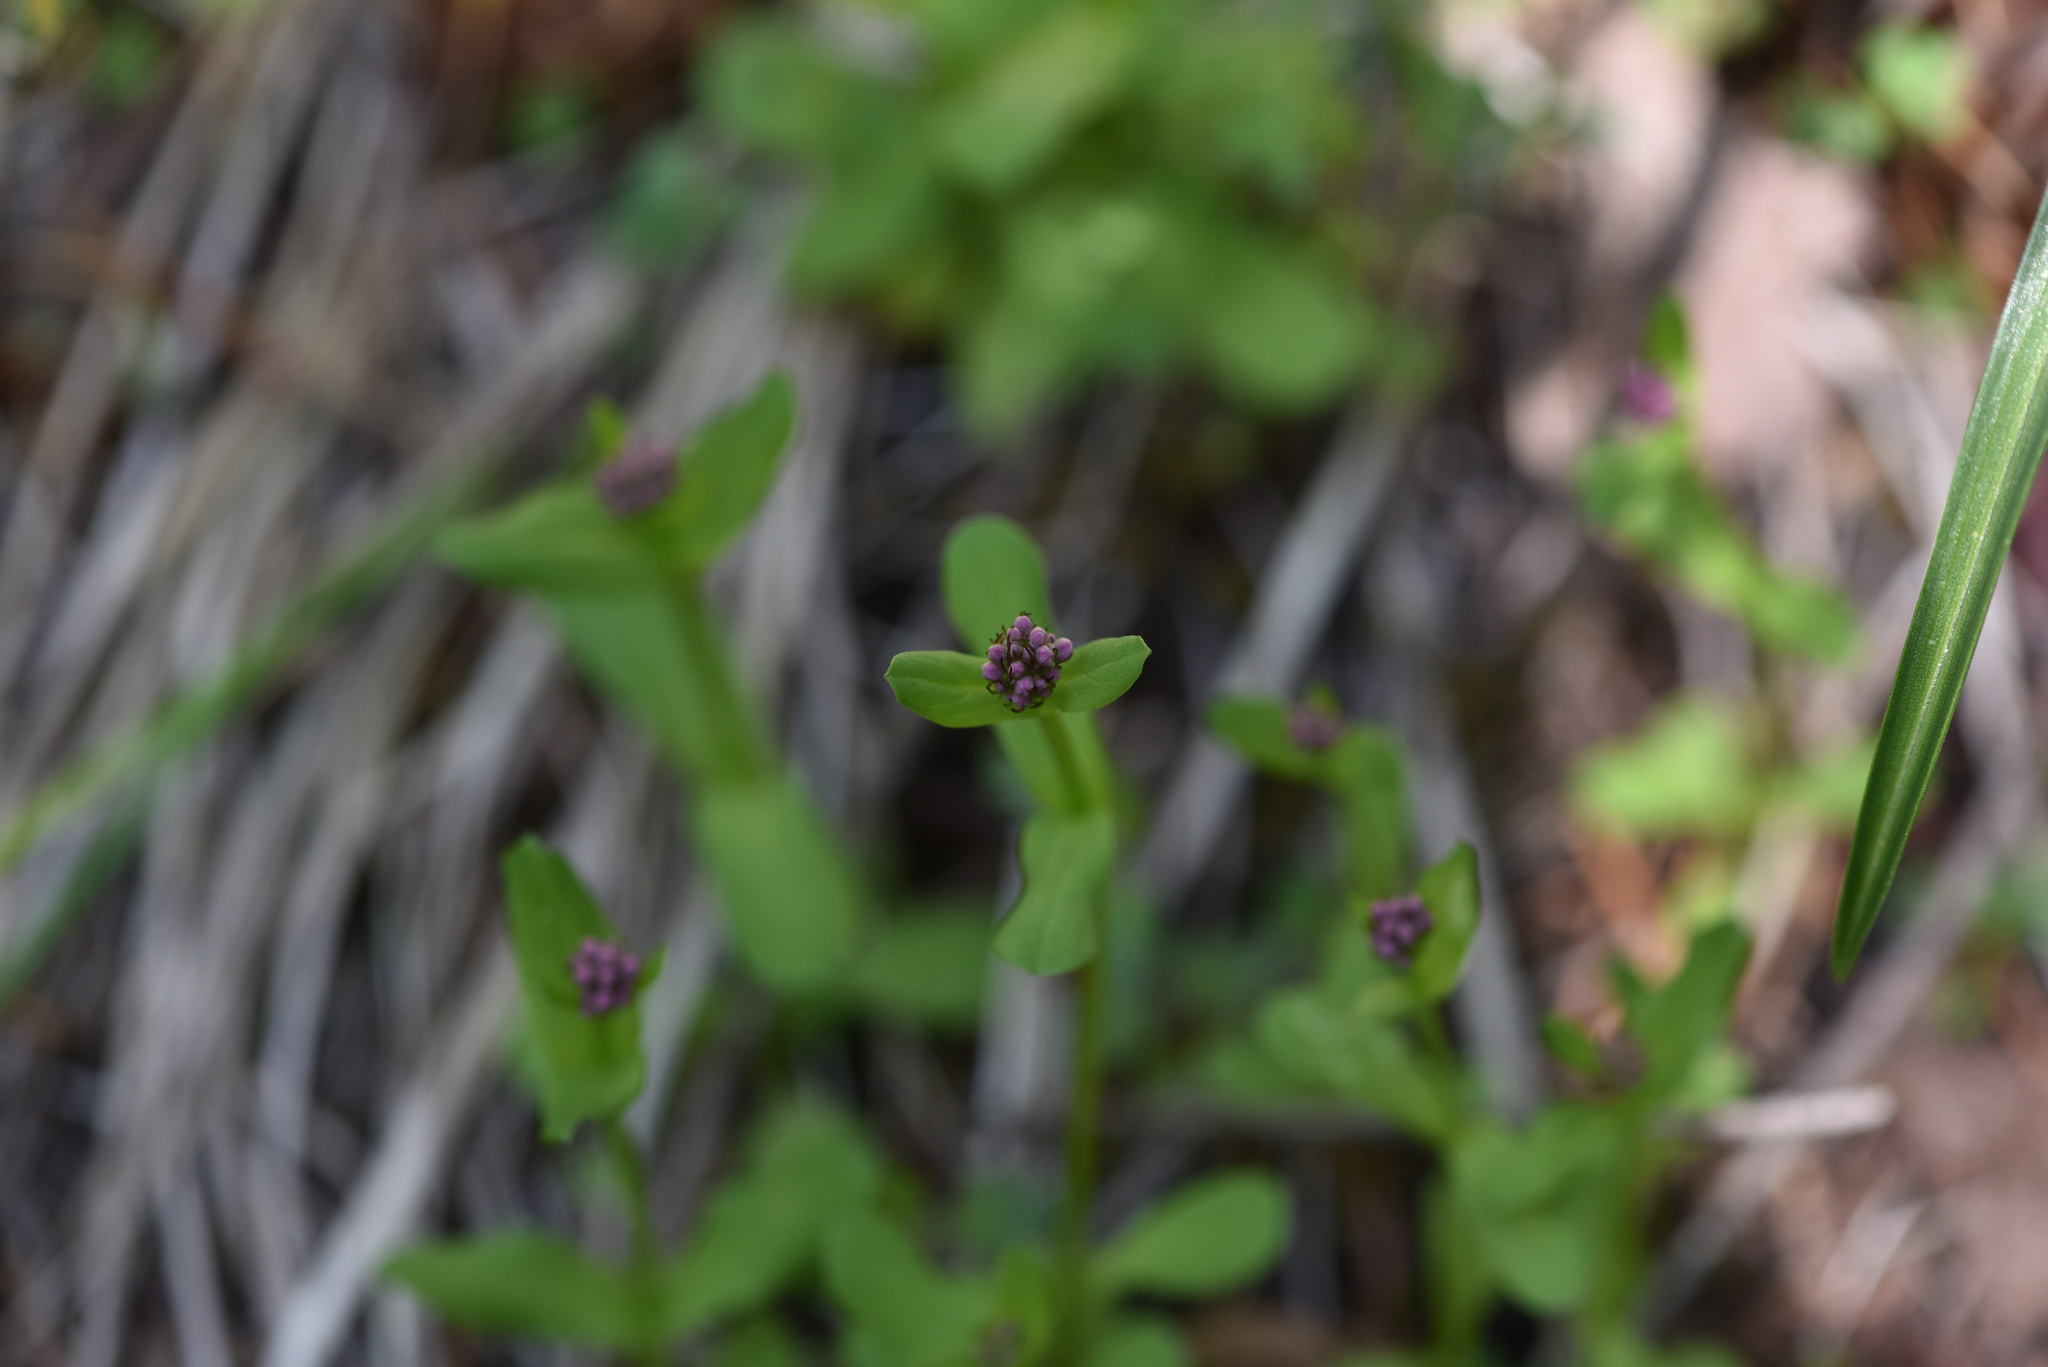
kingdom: Plantae
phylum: Tracheophyta
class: Magnoliopsida
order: Dipsacales
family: Caprifoliaceae
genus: Plectritis
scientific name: Plectritis congesta
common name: Pink plectritis
